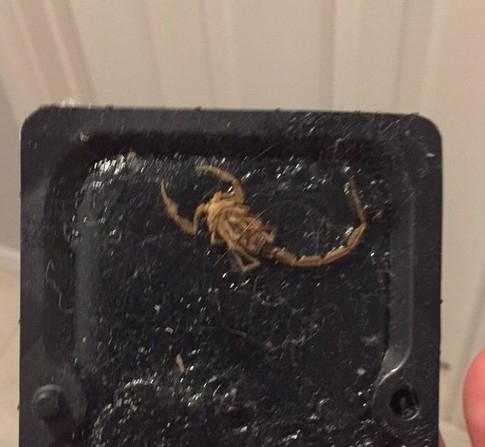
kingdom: Animalia
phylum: Arthropoda
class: Arachnida
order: Scorpiones
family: Buthidae
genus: Centruroides
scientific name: Centruroides vittatus
